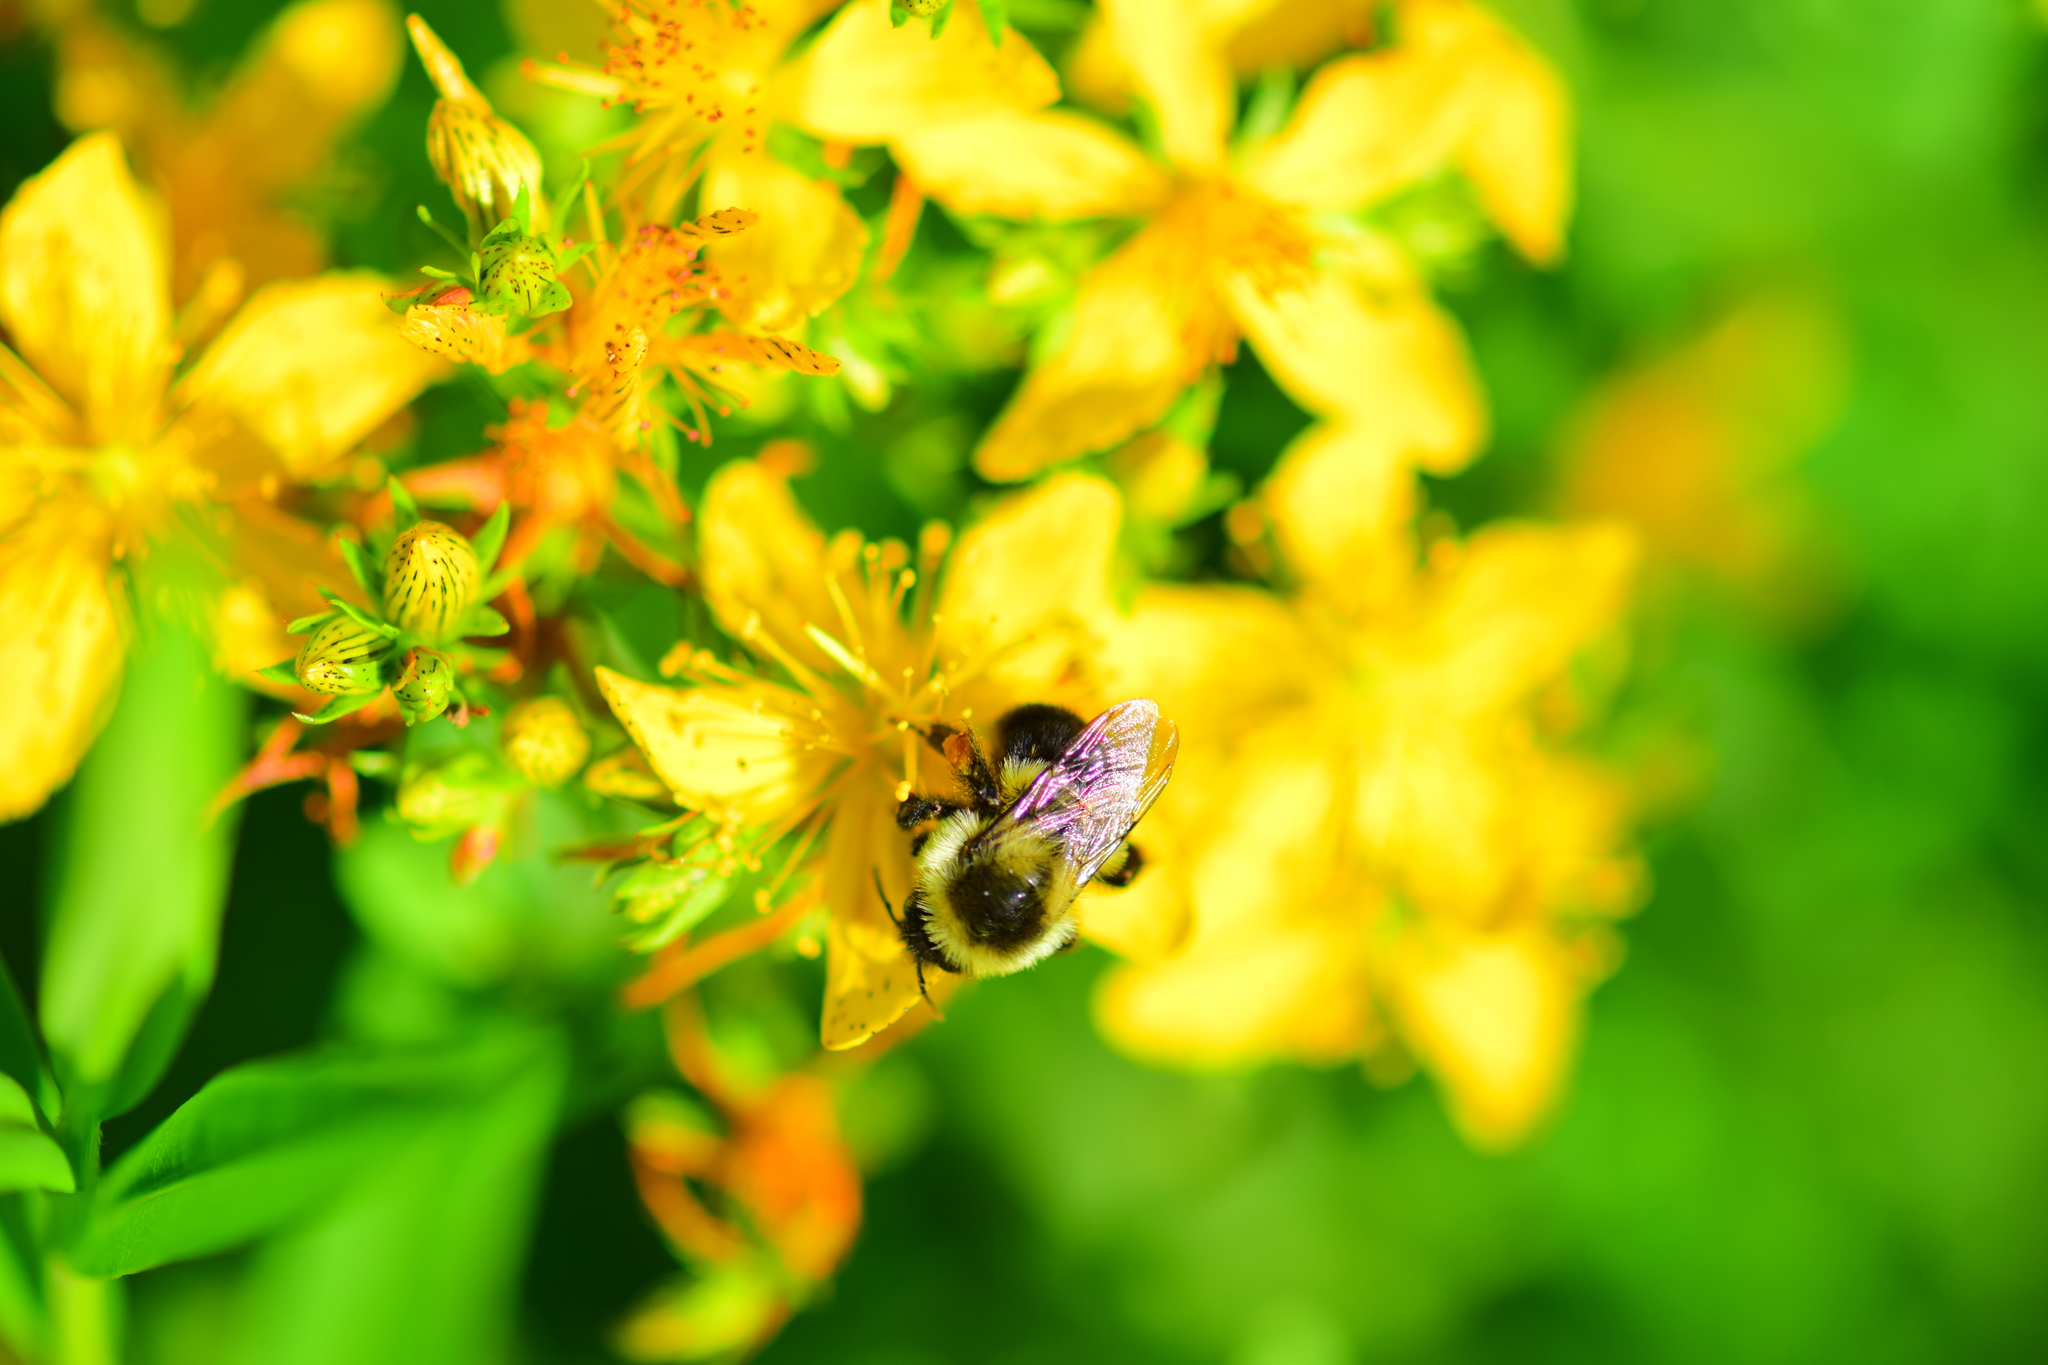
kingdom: Animalia
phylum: Arthropoda
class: Insecta
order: Hymenoptera
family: Apidae
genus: Bombus
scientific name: Bombus impatiens
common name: Common eastern bumble bee
